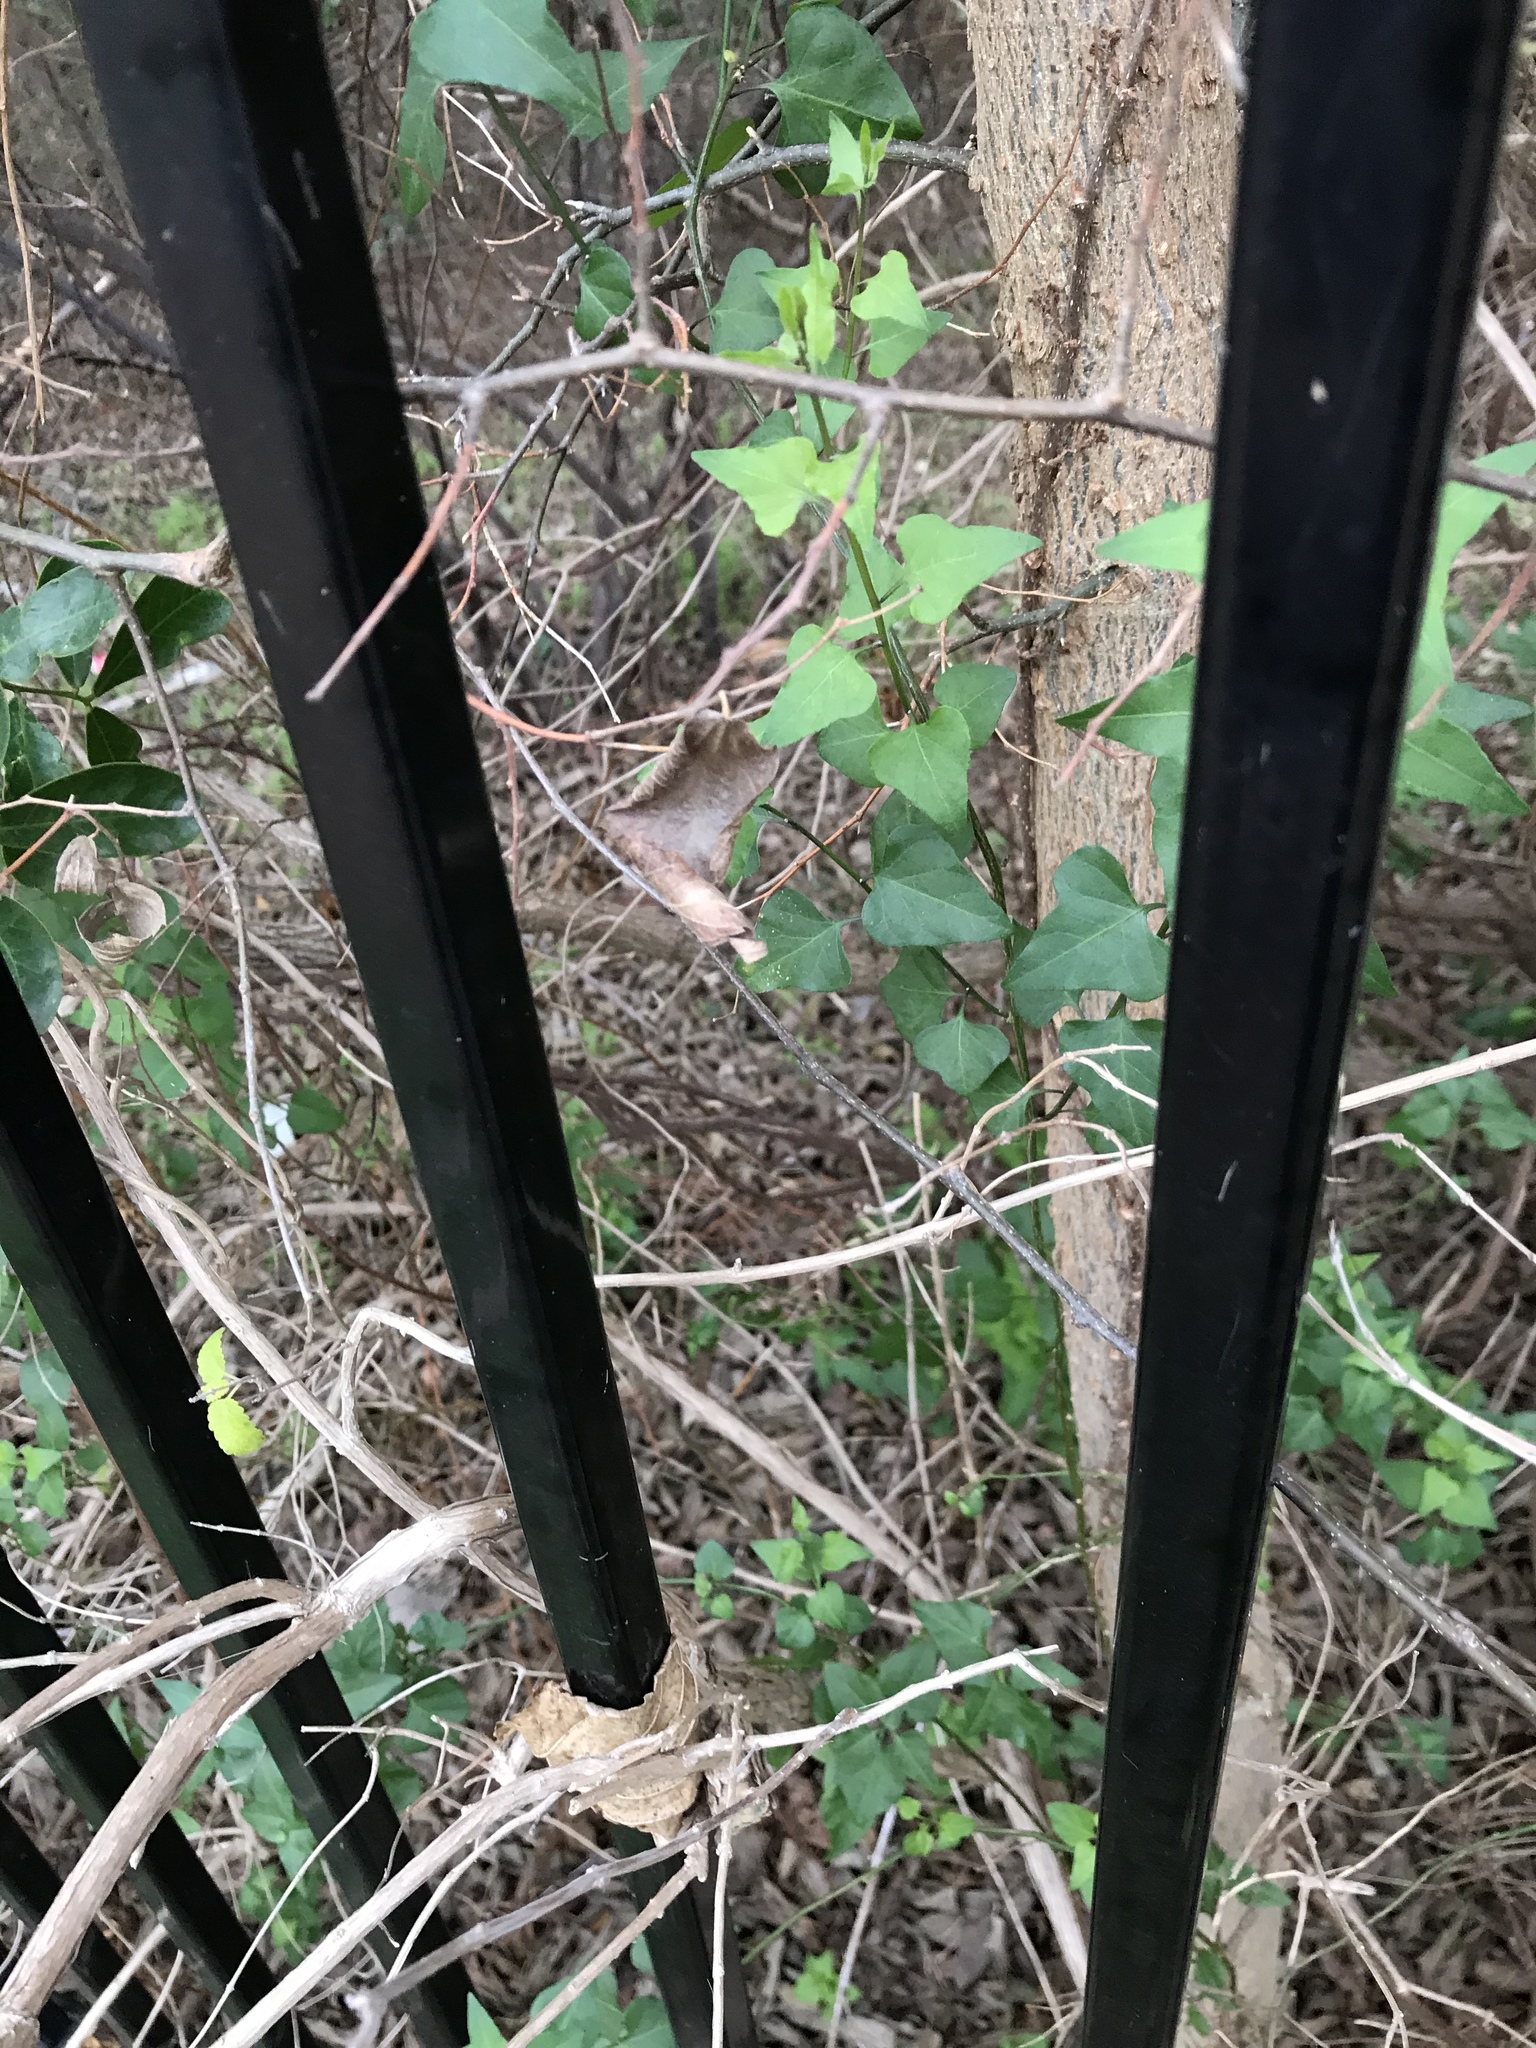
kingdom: Plantae
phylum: Tracheophyta
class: Magnoliopsida
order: Ranunculales
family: Menispermaceae
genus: Cocculus
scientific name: Cocculus carolinus
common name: Carolina moonseed
